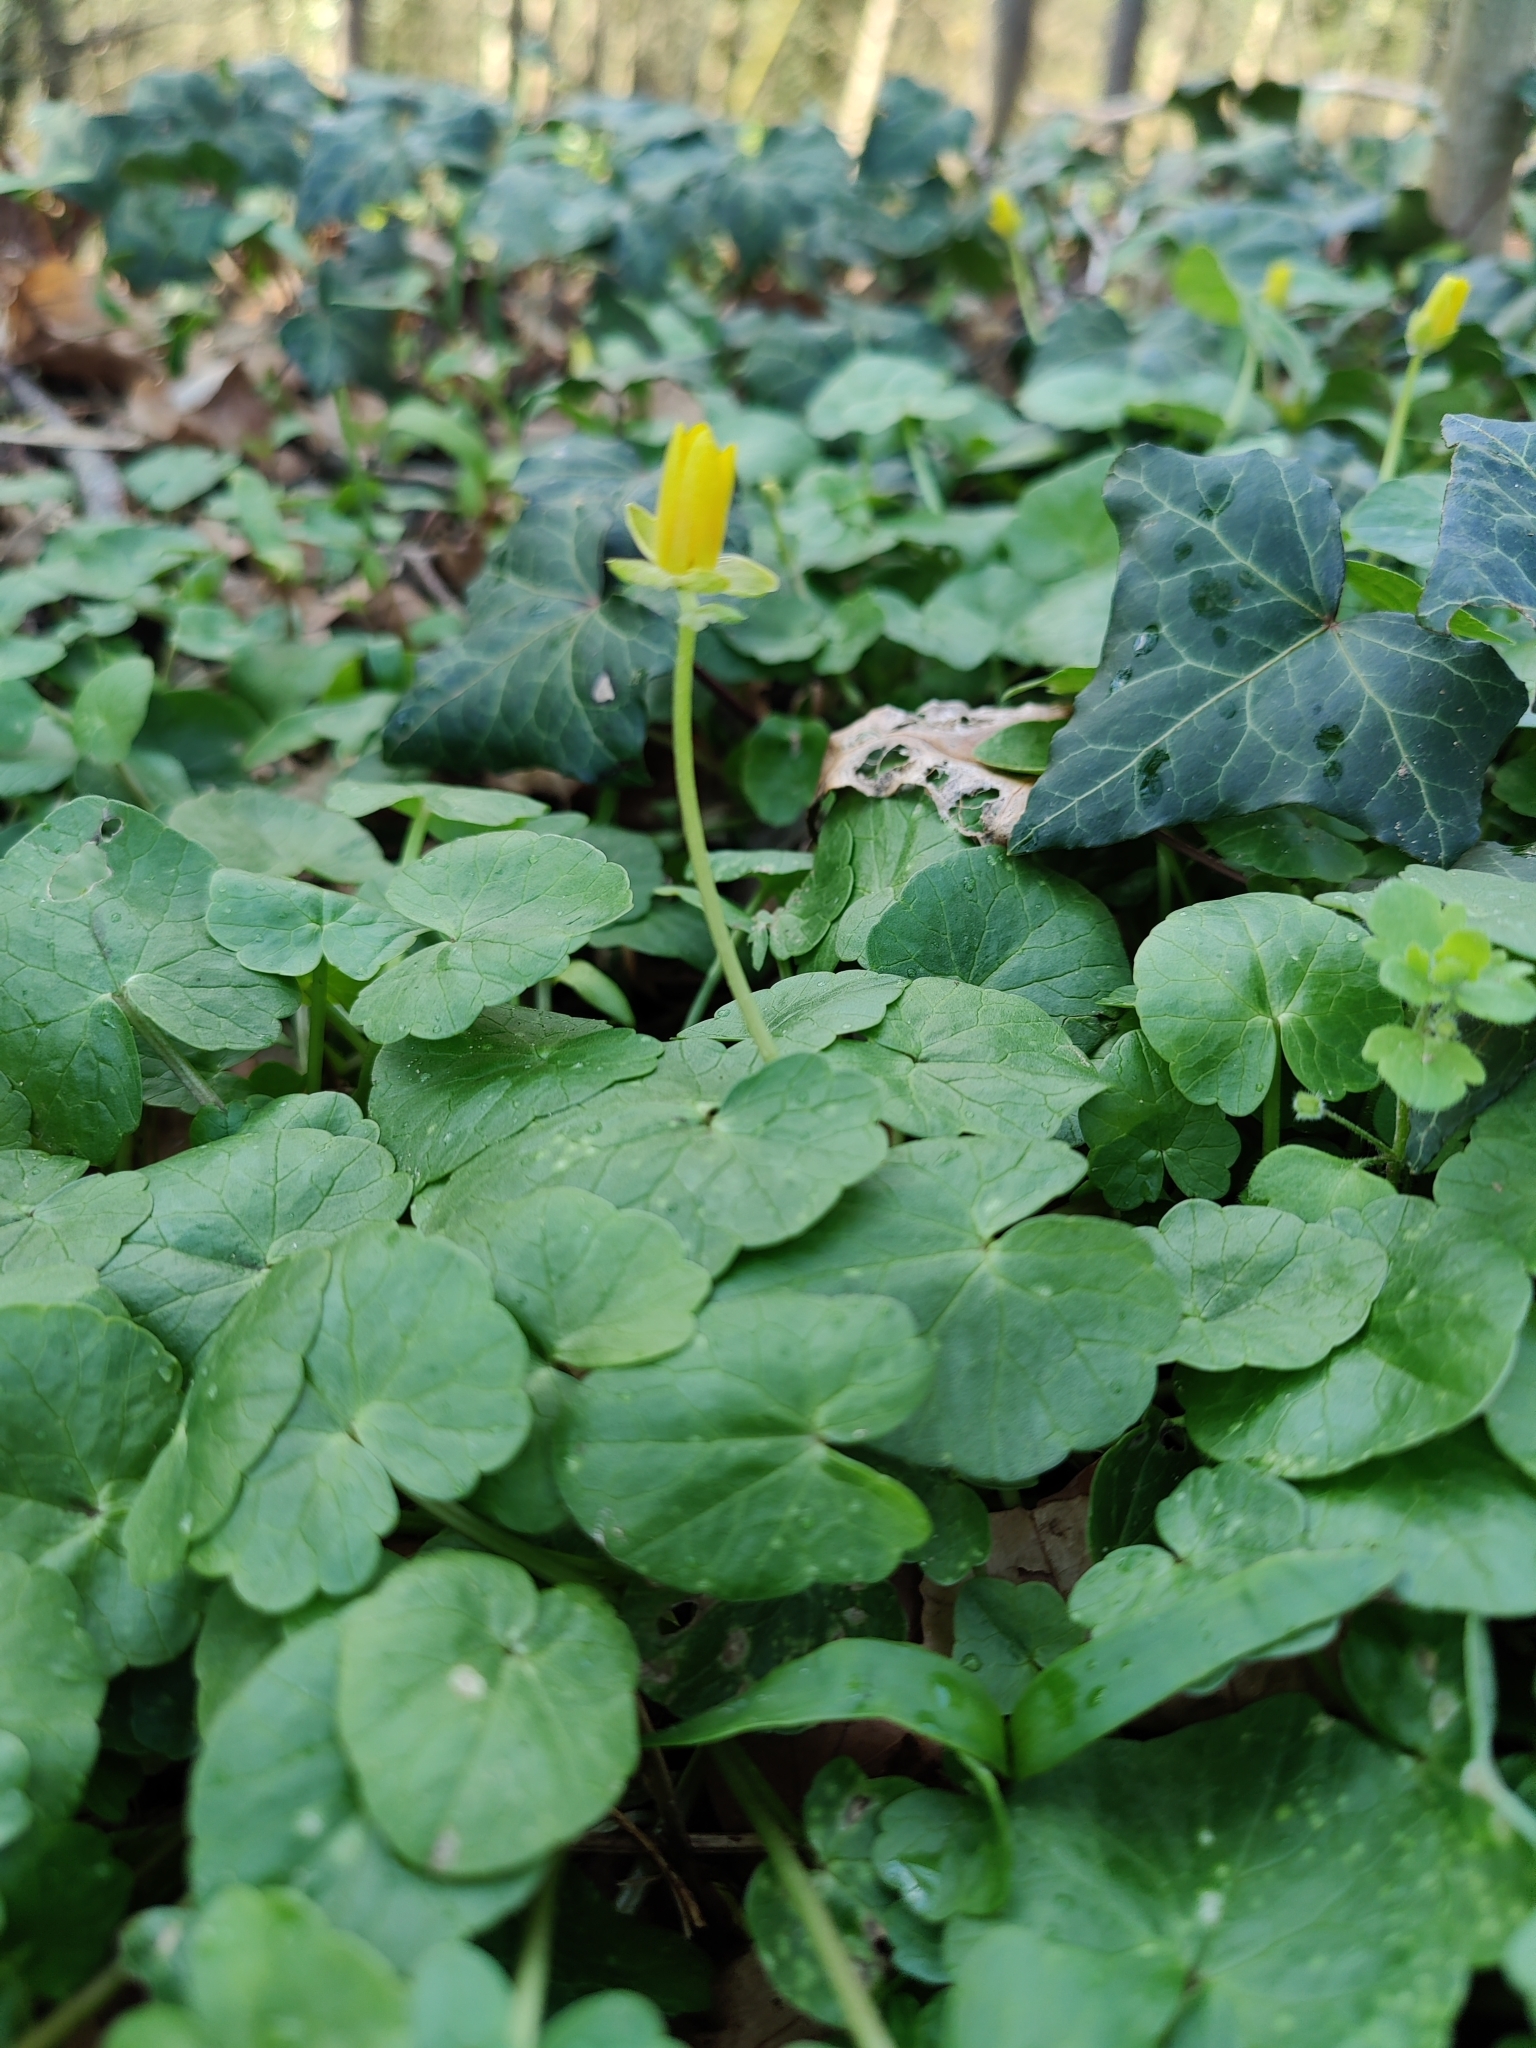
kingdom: Plantae
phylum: Tracheophyta
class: Magnoliopsida
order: Ranunculales
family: Ranunculaceae
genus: Ficaria
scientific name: Ficaria verna
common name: Lesser celandine
